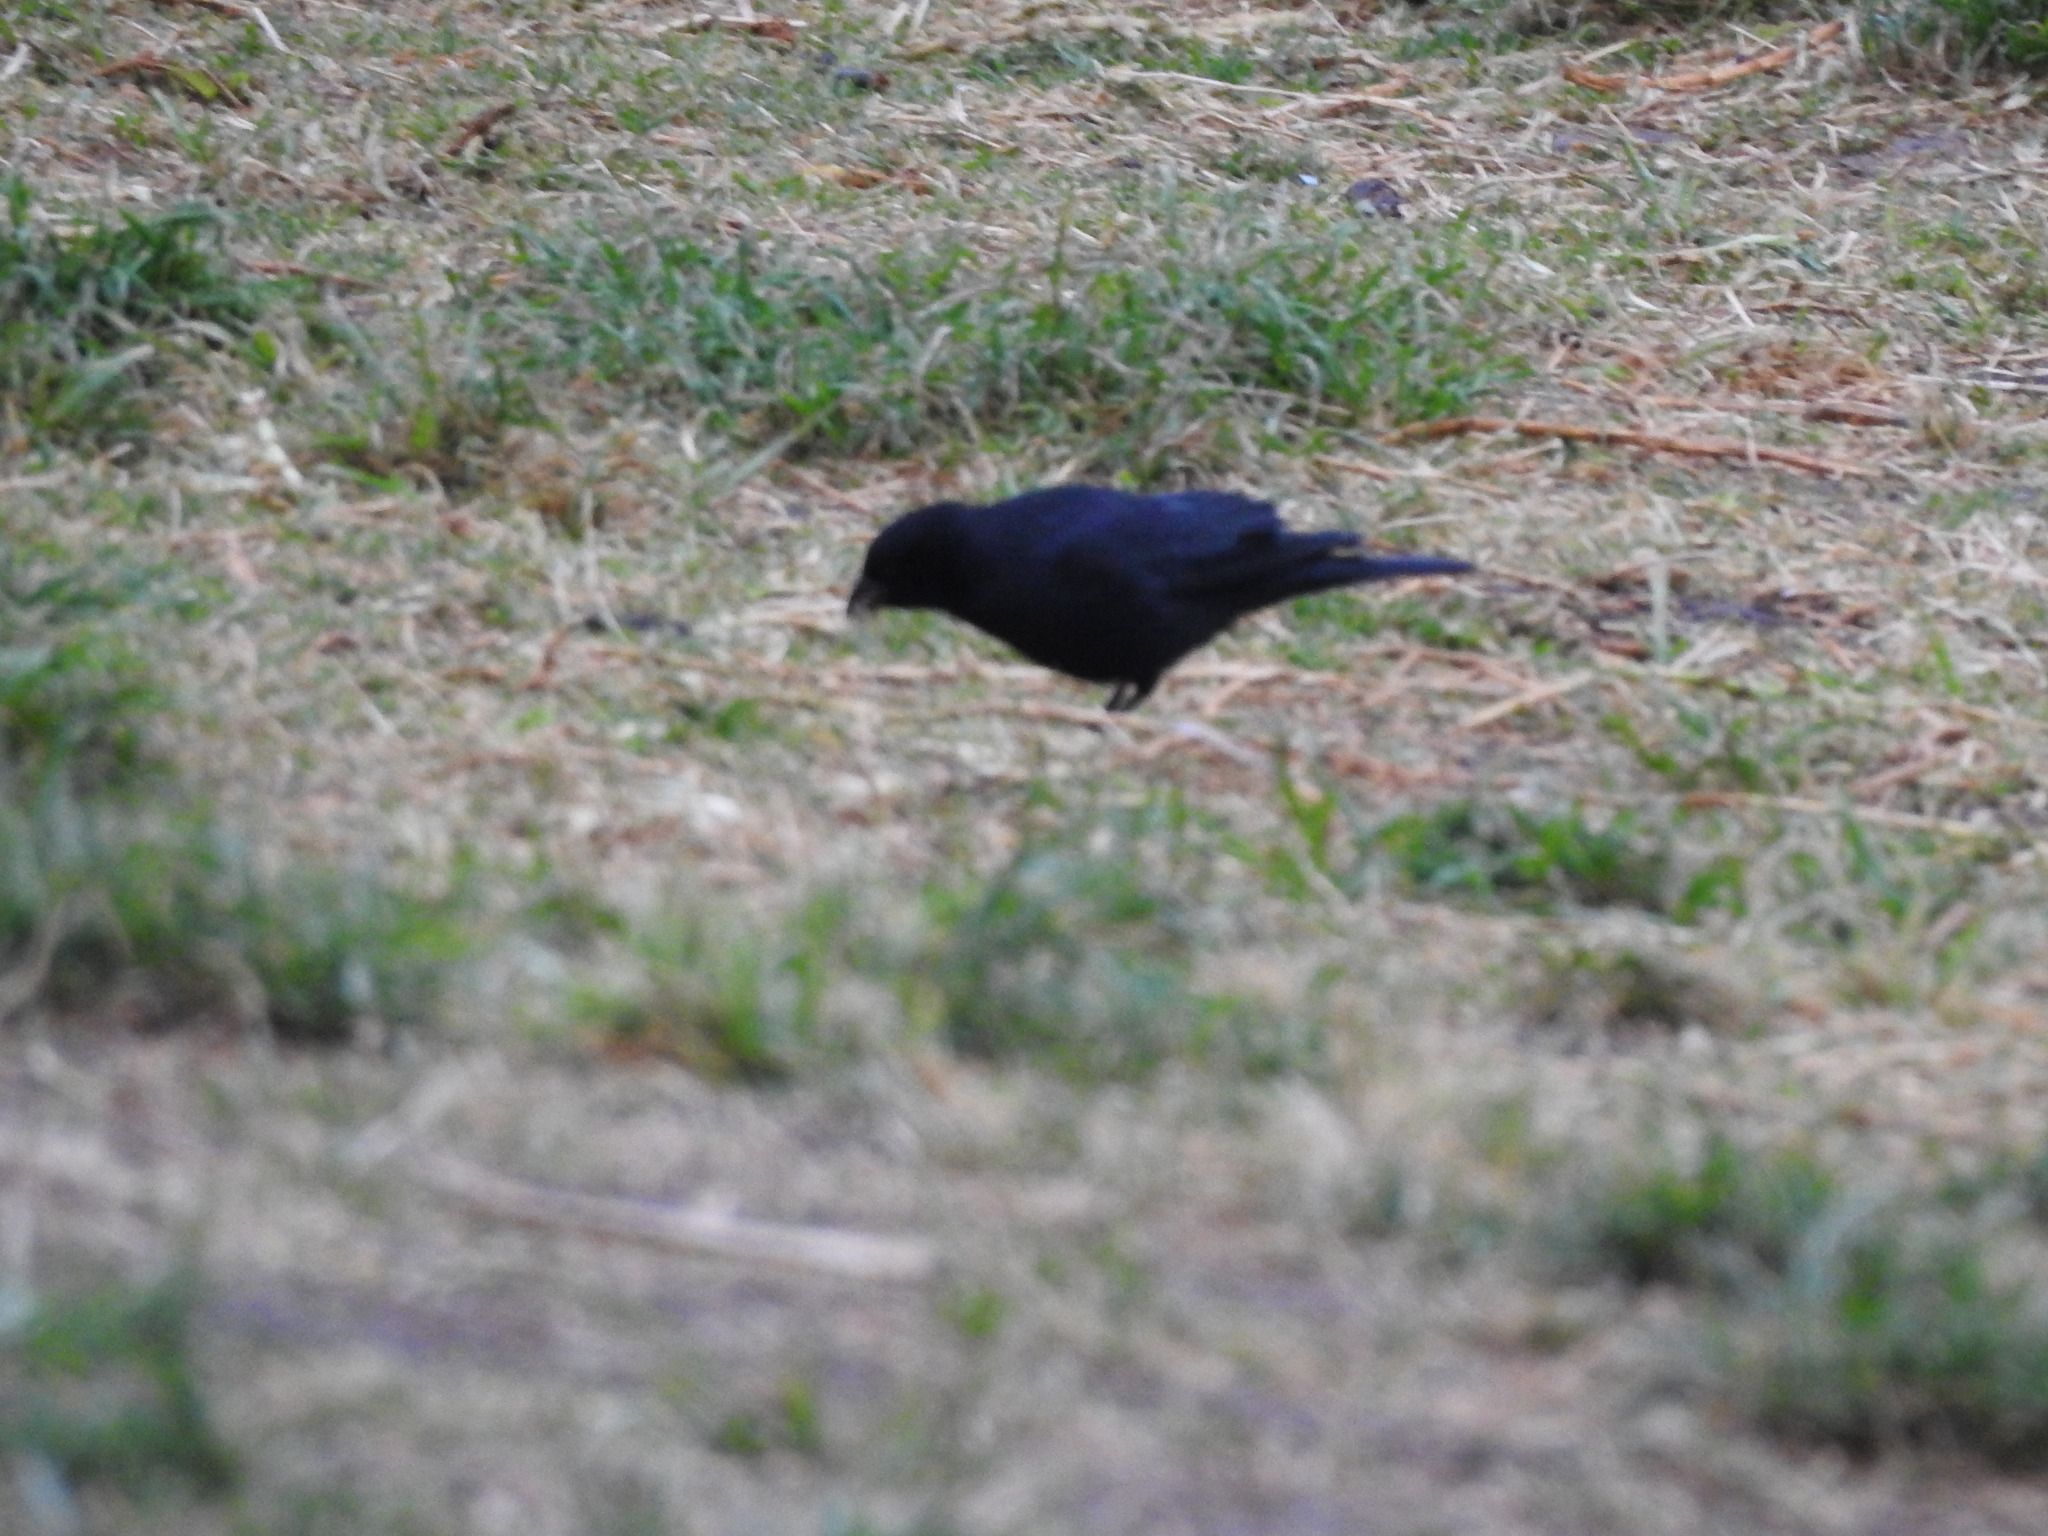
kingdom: Animalia
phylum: Chordata
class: Aves
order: Passeriformes
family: Icteridae
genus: Molothrus
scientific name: Molothrus bonariensis
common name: Shiny cowbird
